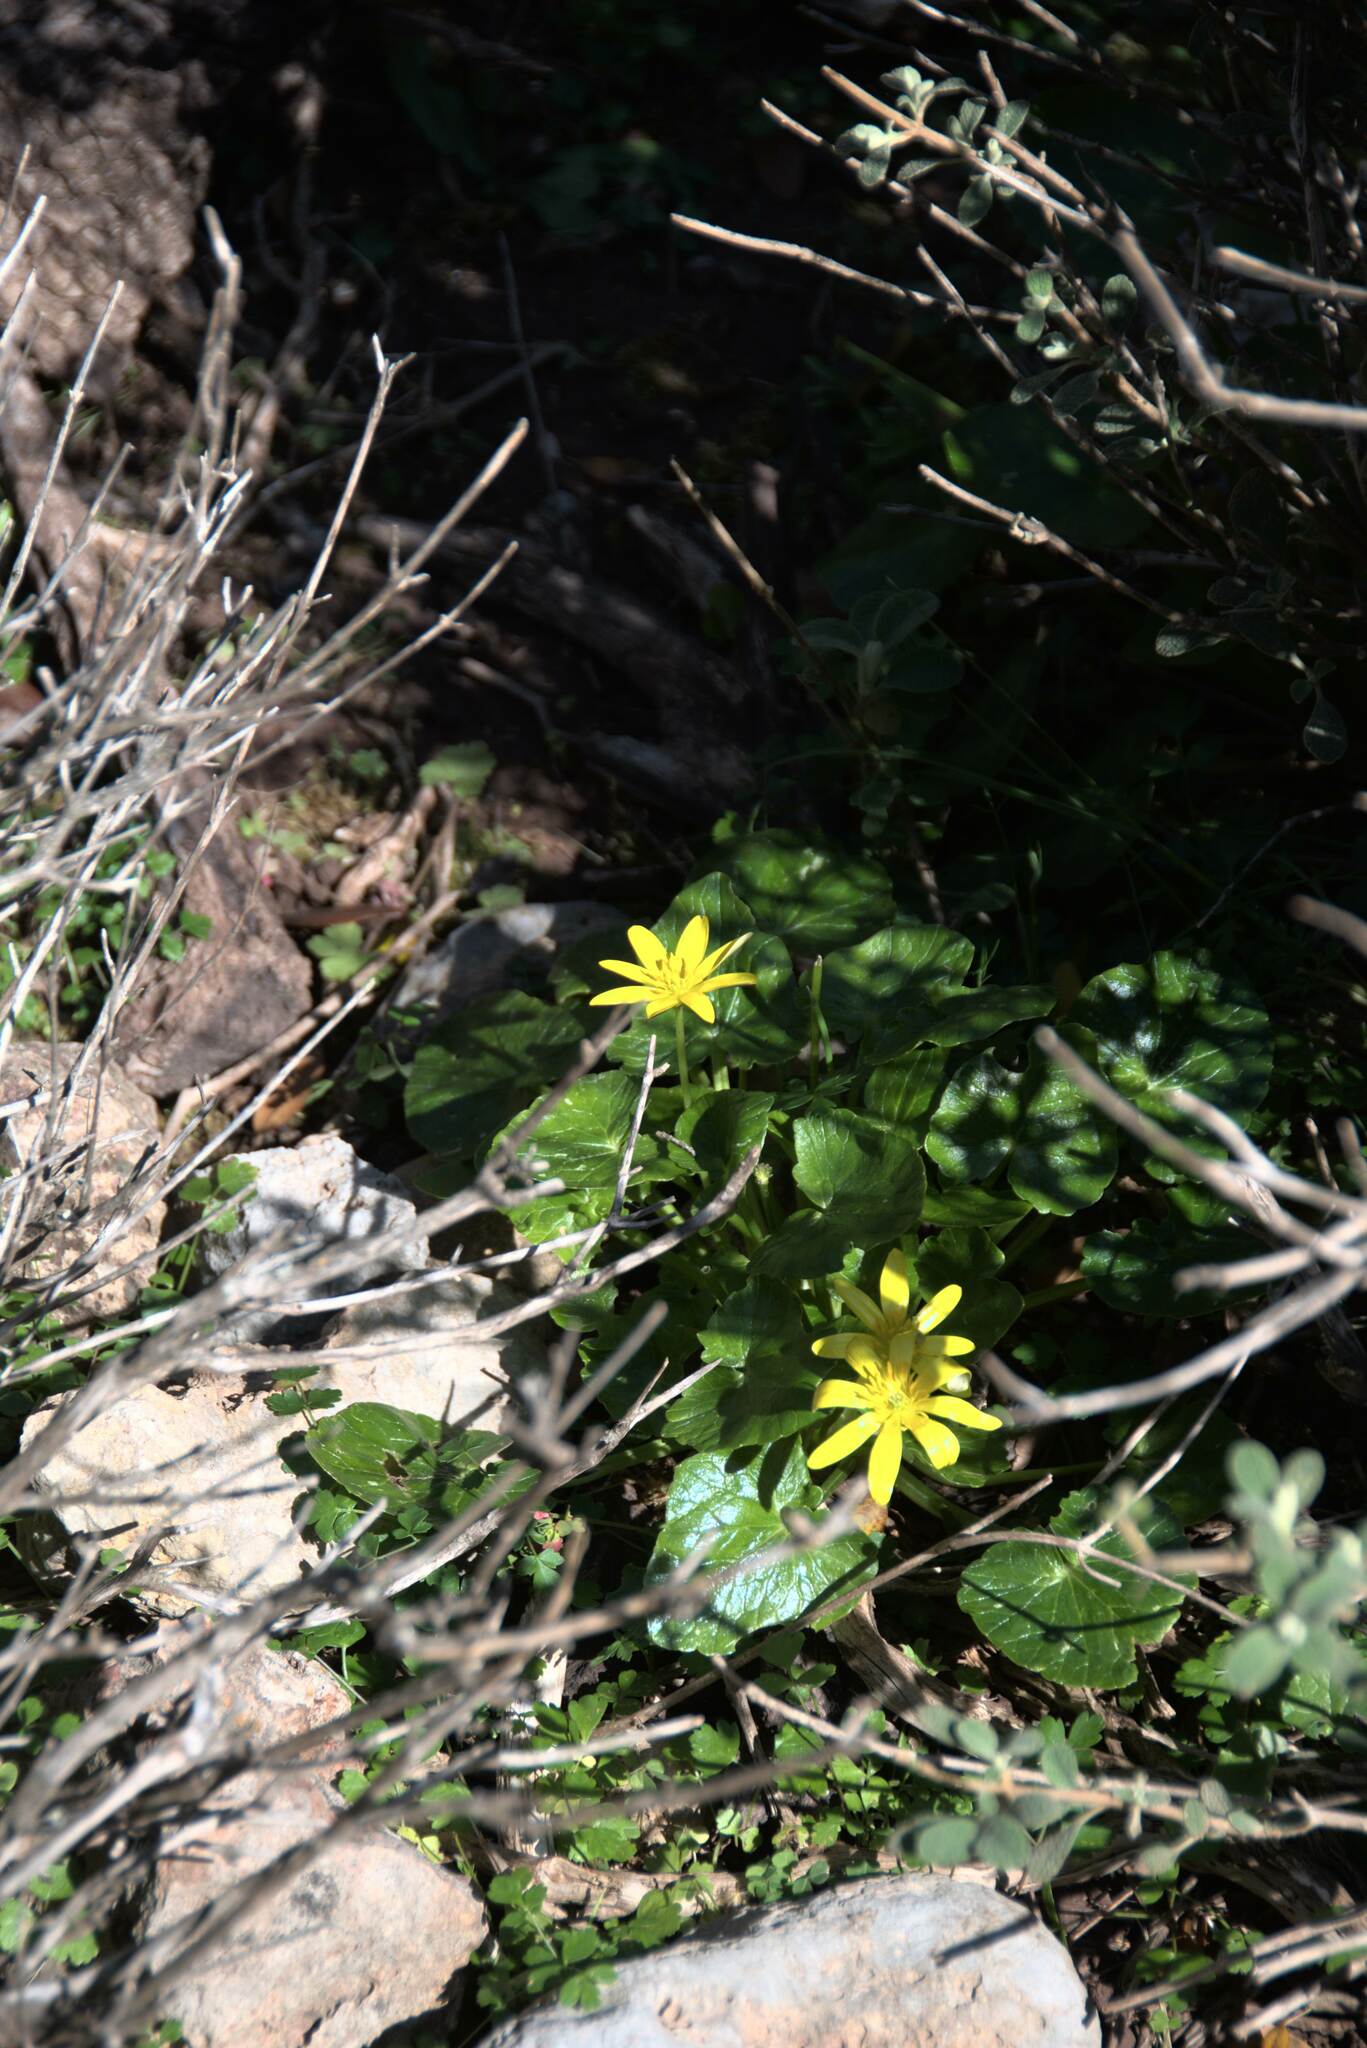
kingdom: Plantae
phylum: Tracheophyta
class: Magnoliopsida
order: Ranunculales
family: Ranunculaceae
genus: Ficaria
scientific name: Ficaria verna
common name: Lesser celandine
